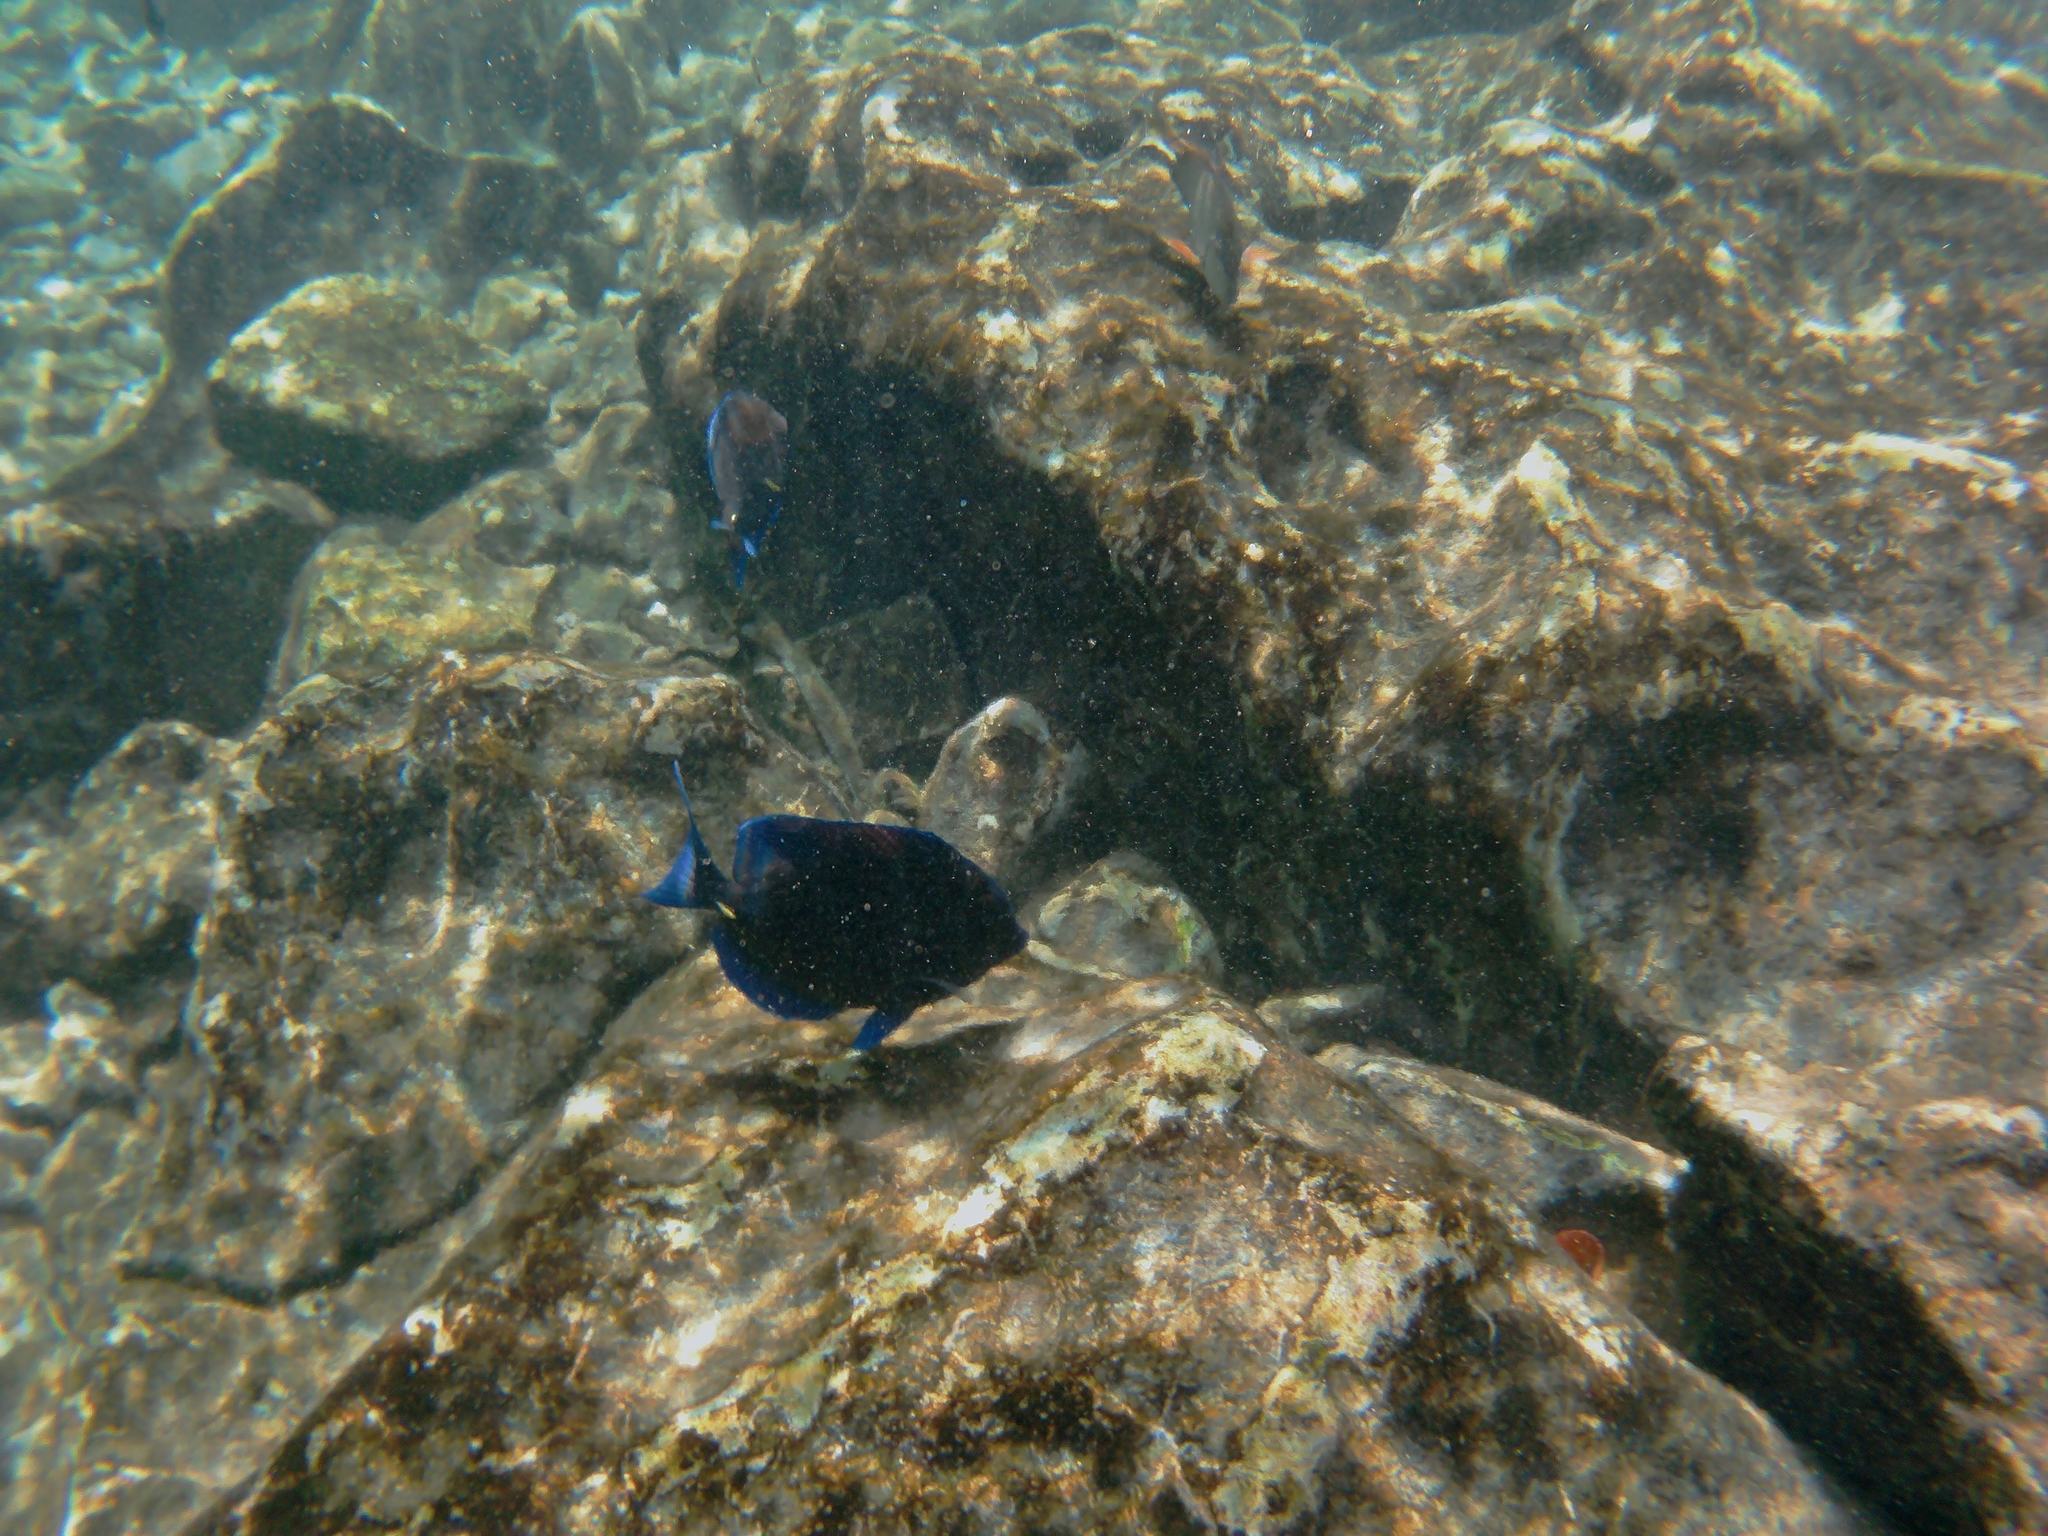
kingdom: Animalia
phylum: Chordata
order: Perciformes
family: Acanthuridae
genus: Acanthurus
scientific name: Acanthurus coeruleus
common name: Blue tang
